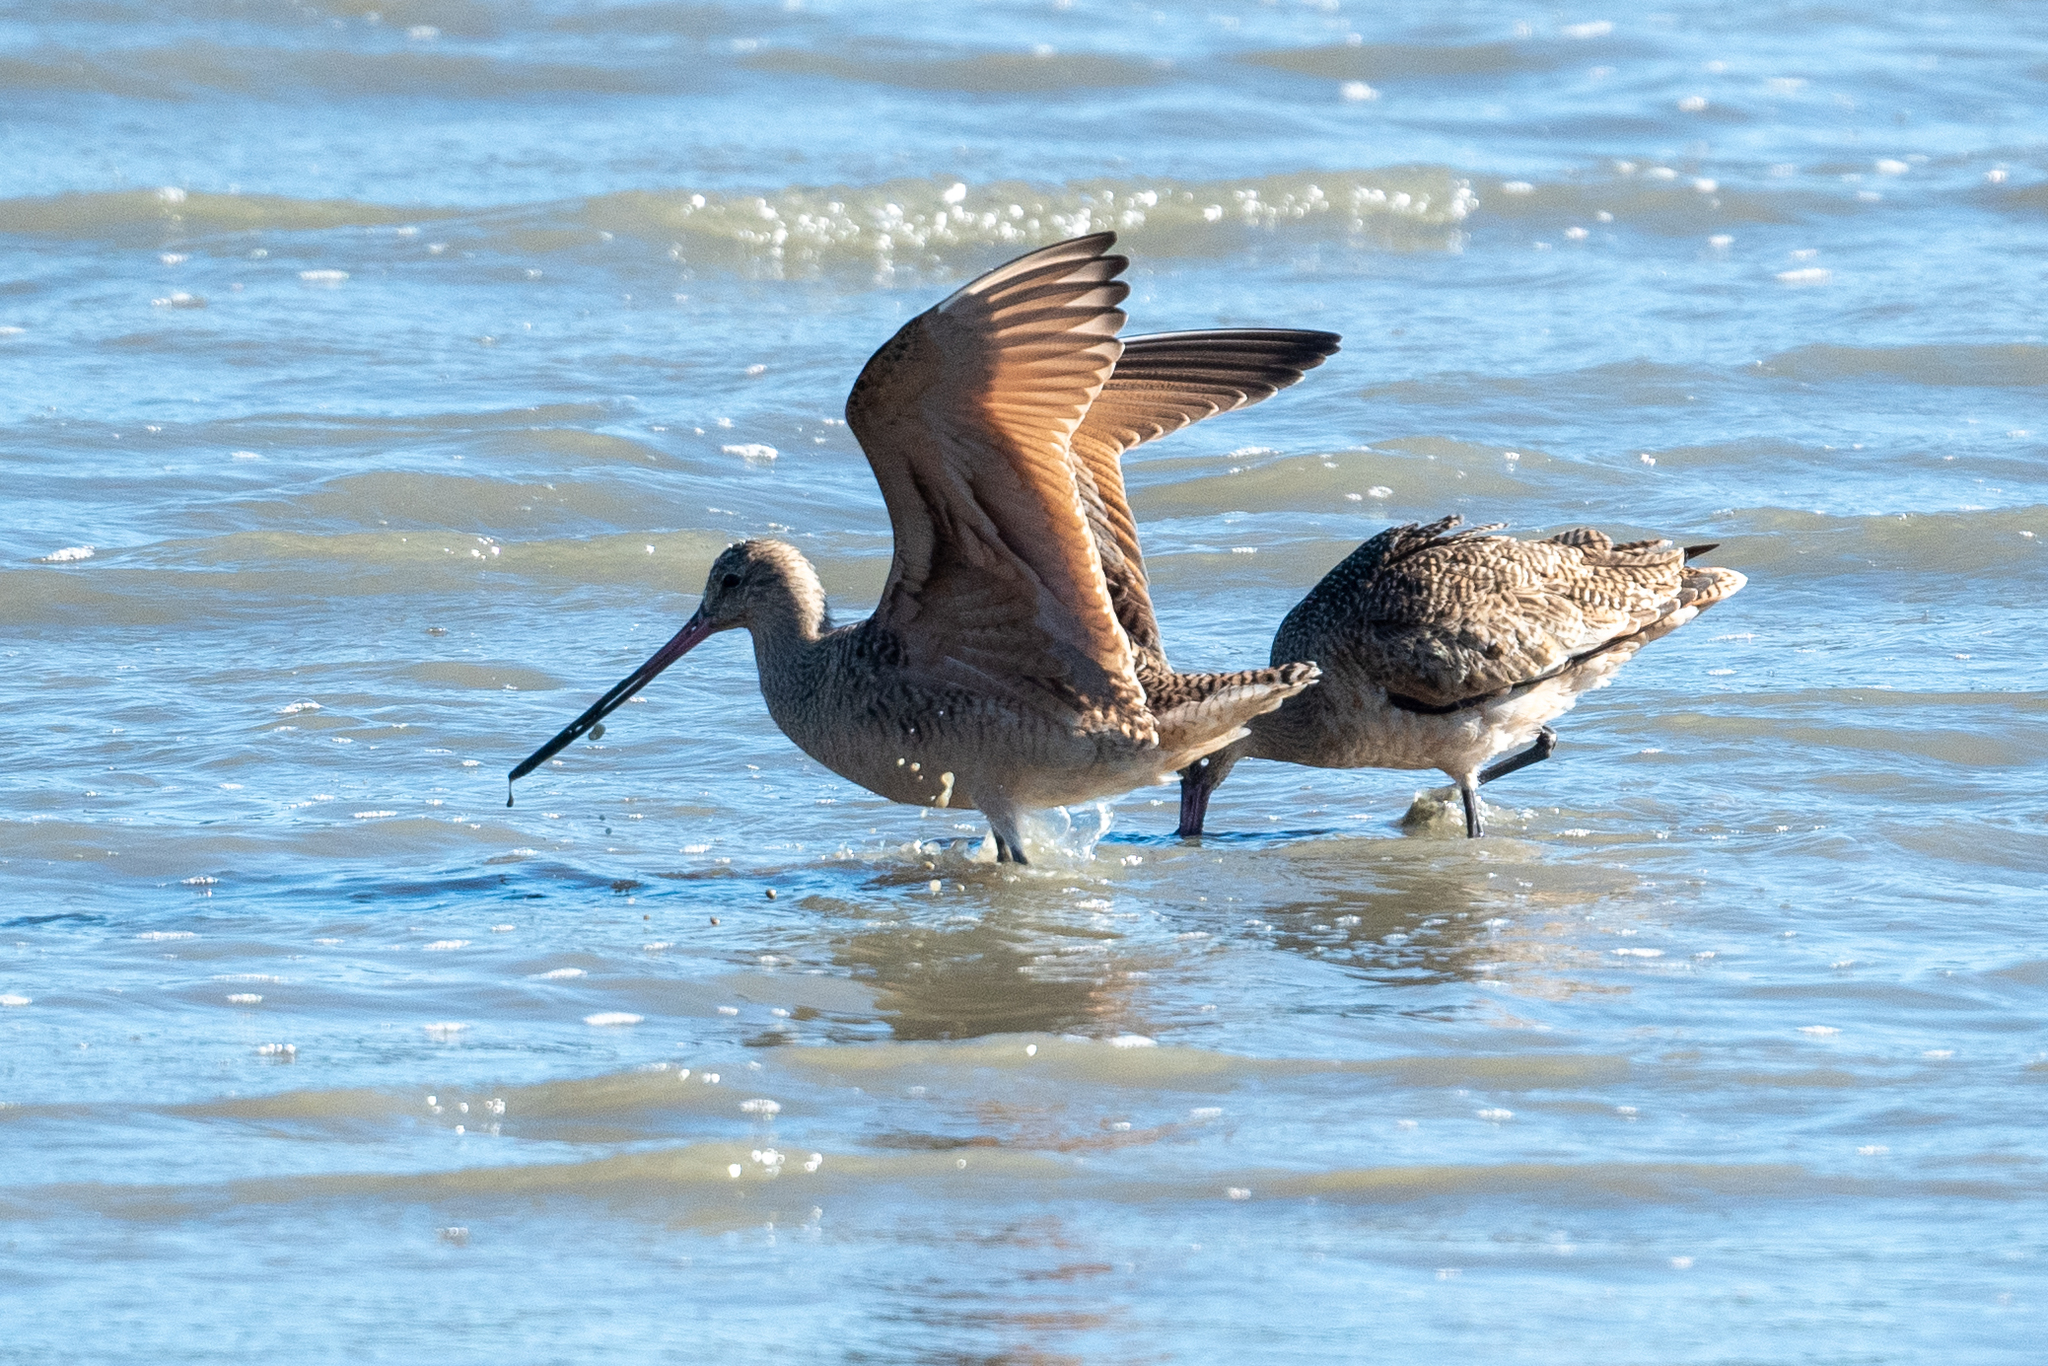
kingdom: Animalia
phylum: Chordata
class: Aves
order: Charadriiformes
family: Scolopacidae
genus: Limosa
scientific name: Limosa fedoa
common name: Marbled godwit
